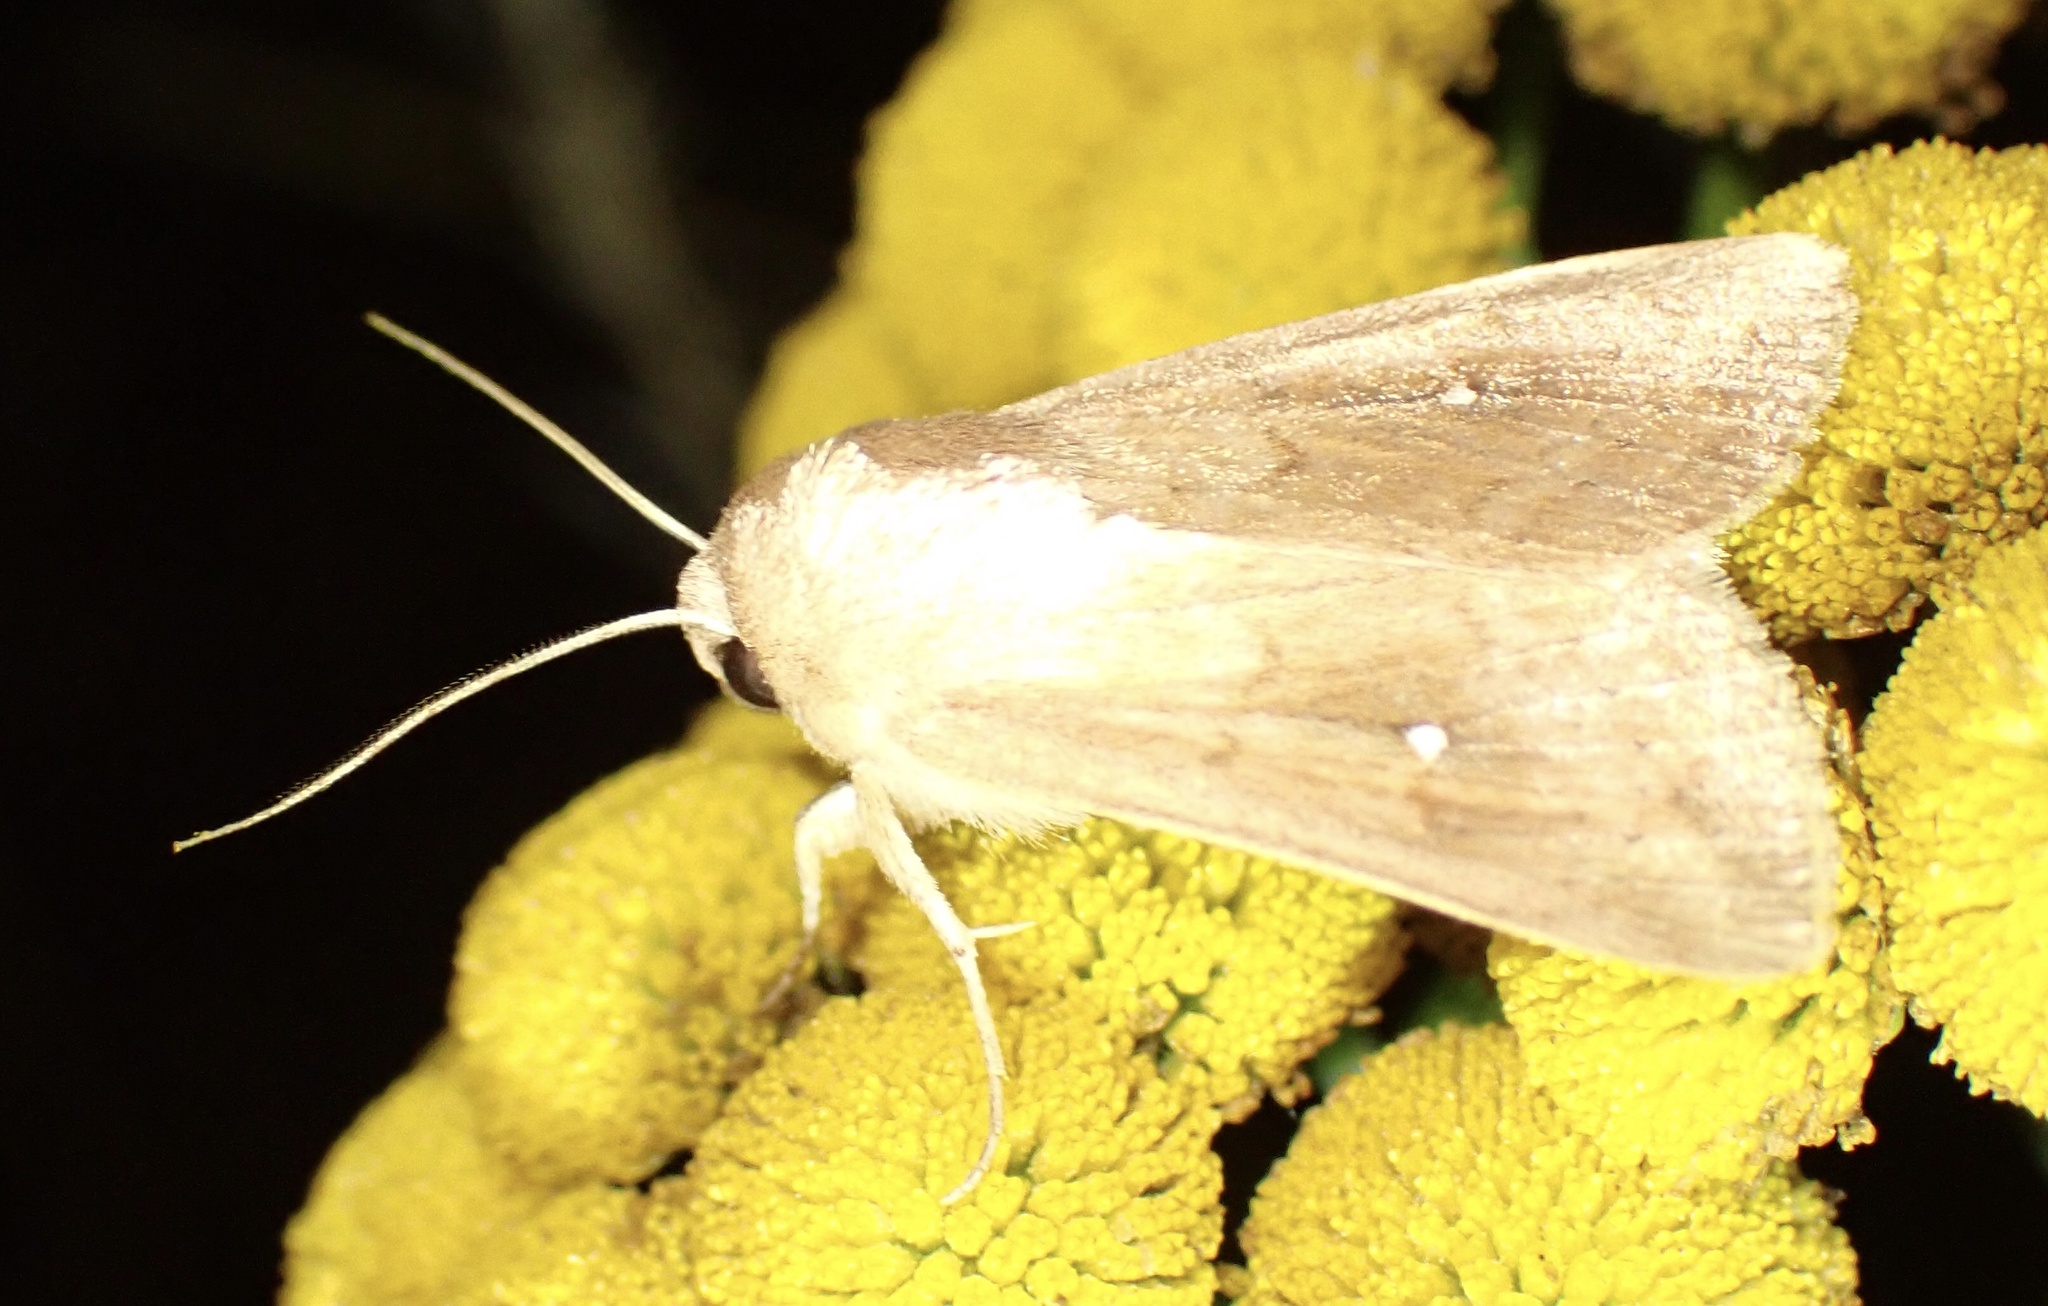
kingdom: Animalia
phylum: Arthropoda
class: Insecta
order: Lepidoptera
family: Noctuidae
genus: Mythimna
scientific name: Mythimna albipuncta
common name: White-point
